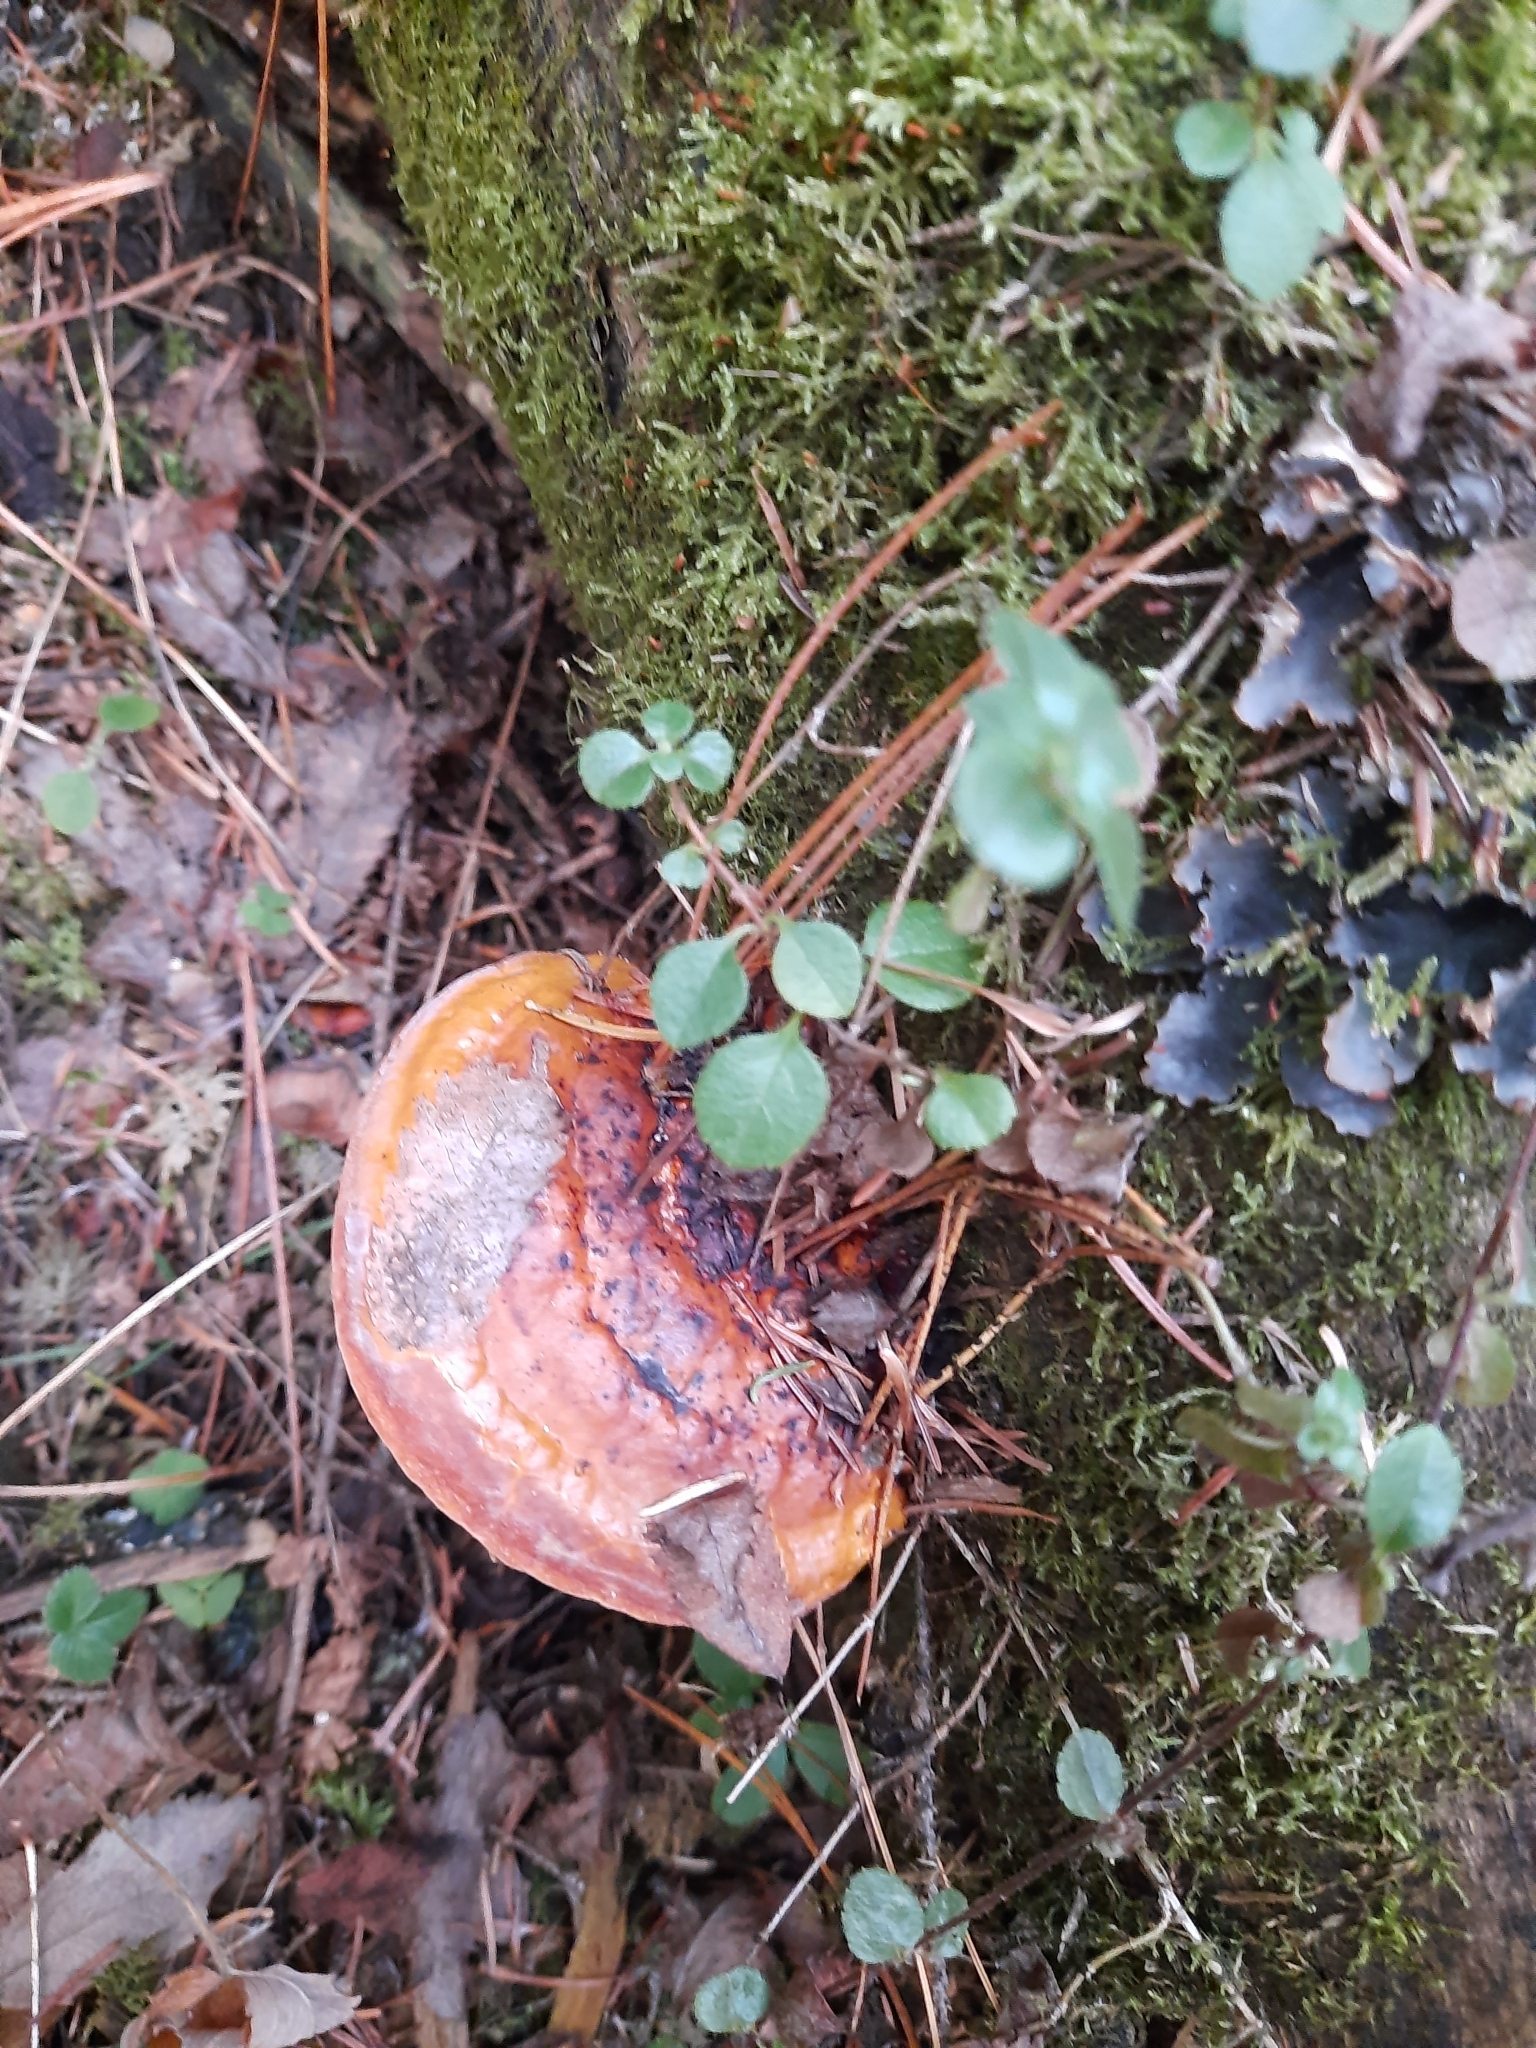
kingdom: Fungi
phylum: Basidiomycota
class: Agaricomycetes
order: Polyporales
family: Fomitopsidaceae
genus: Fomitopsis
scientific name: Fomitopsis pinicola
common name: Red-belted bracket
